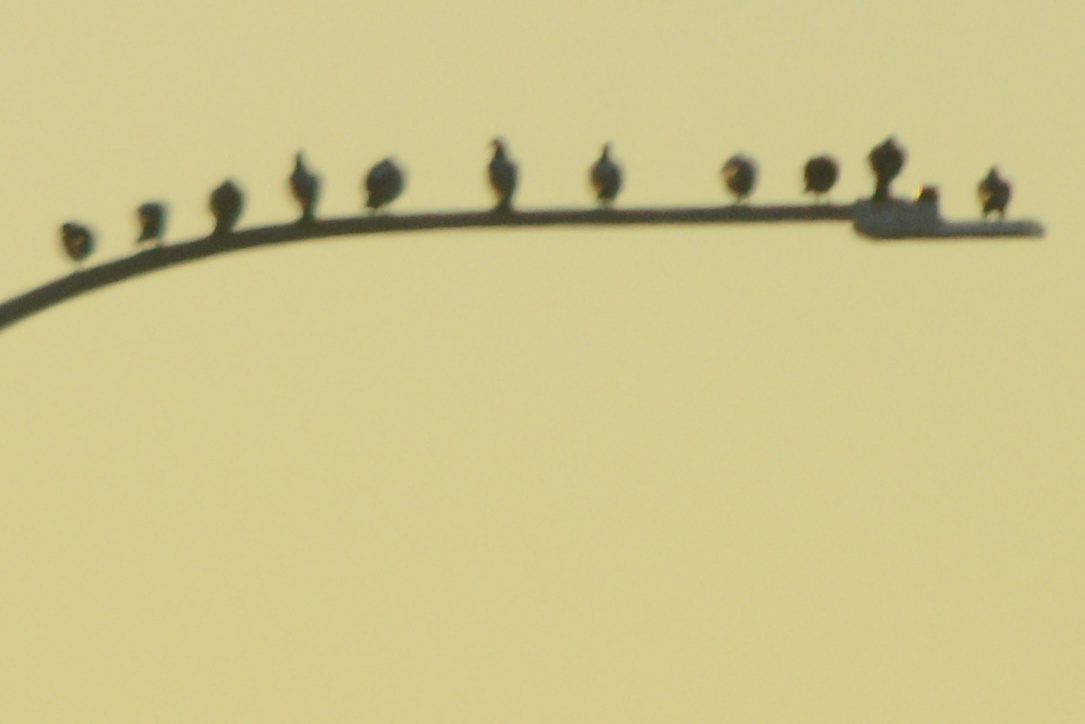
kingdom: Animalia
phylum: Chordata
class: Aves
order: Columbiformes
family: Columbidae
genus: Columba
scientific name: Columba livia
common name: Rock pigeon
